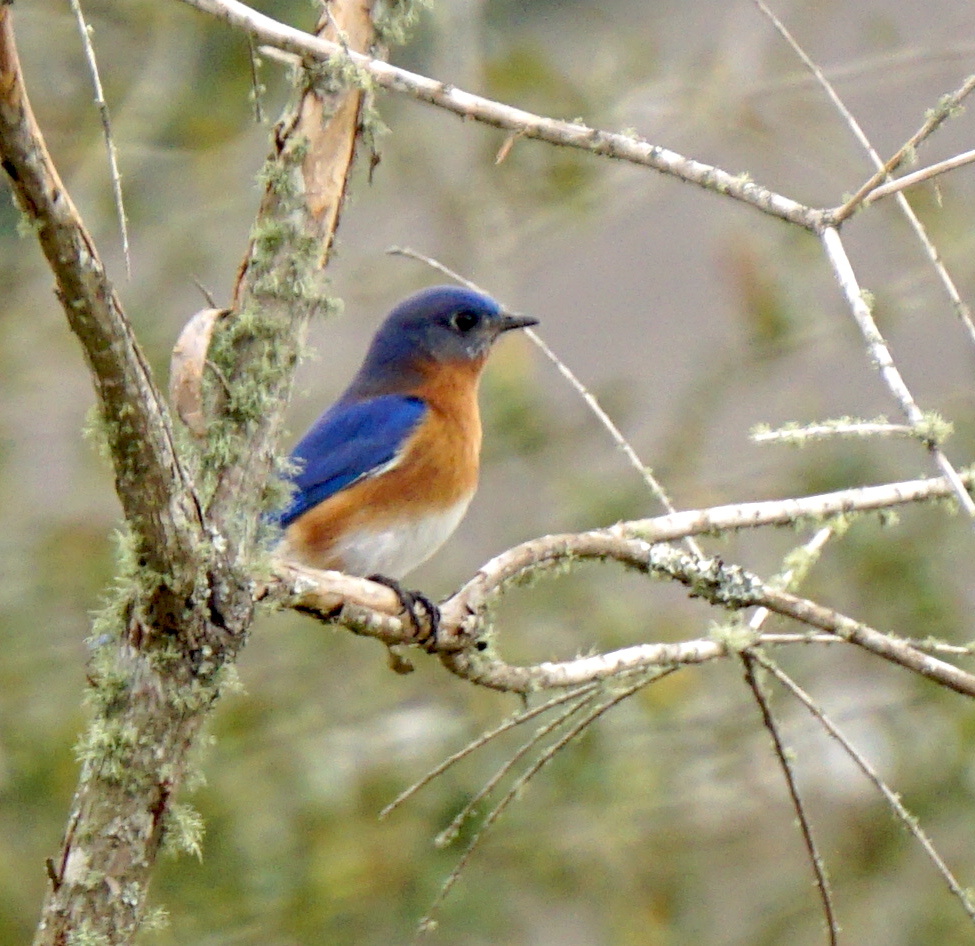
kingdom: Animalia
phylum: Chordata
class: Aves
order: Passeriformes
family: Turdidae
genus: Sialia
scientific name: Sialia sialis
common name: Eastern bluebird
